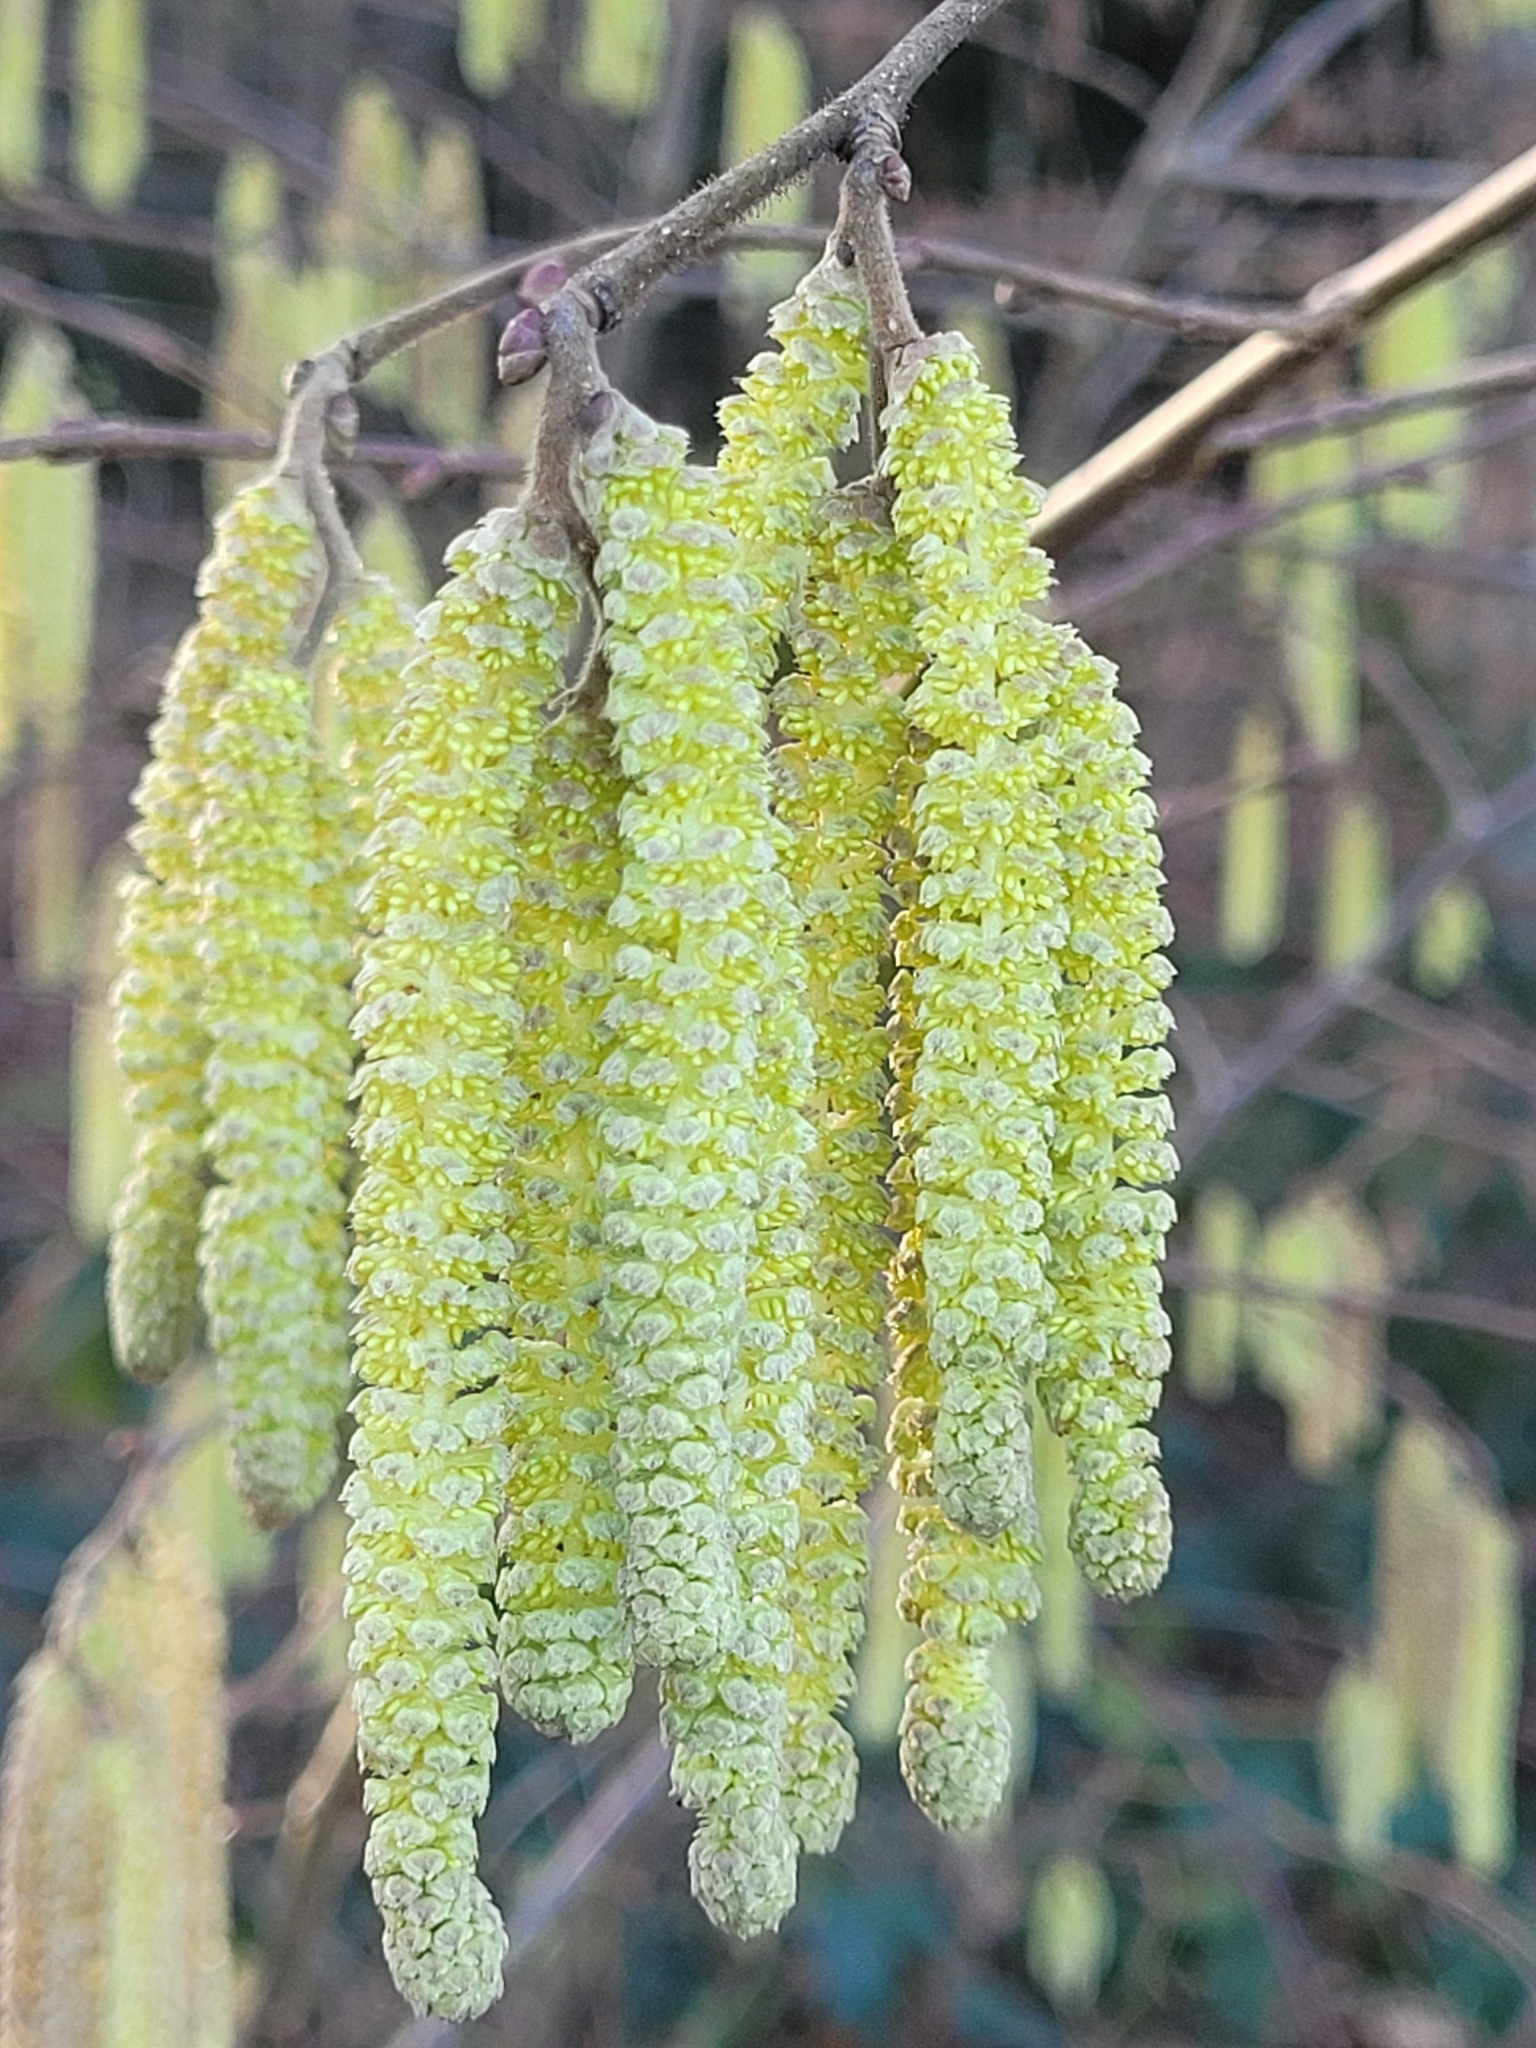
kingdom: Plantae
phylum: Tracheophyta
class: Magnoliopsida
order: Fagales
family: Betulaceae
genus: Corylus
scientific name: Corylus avellana
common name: European hazel
